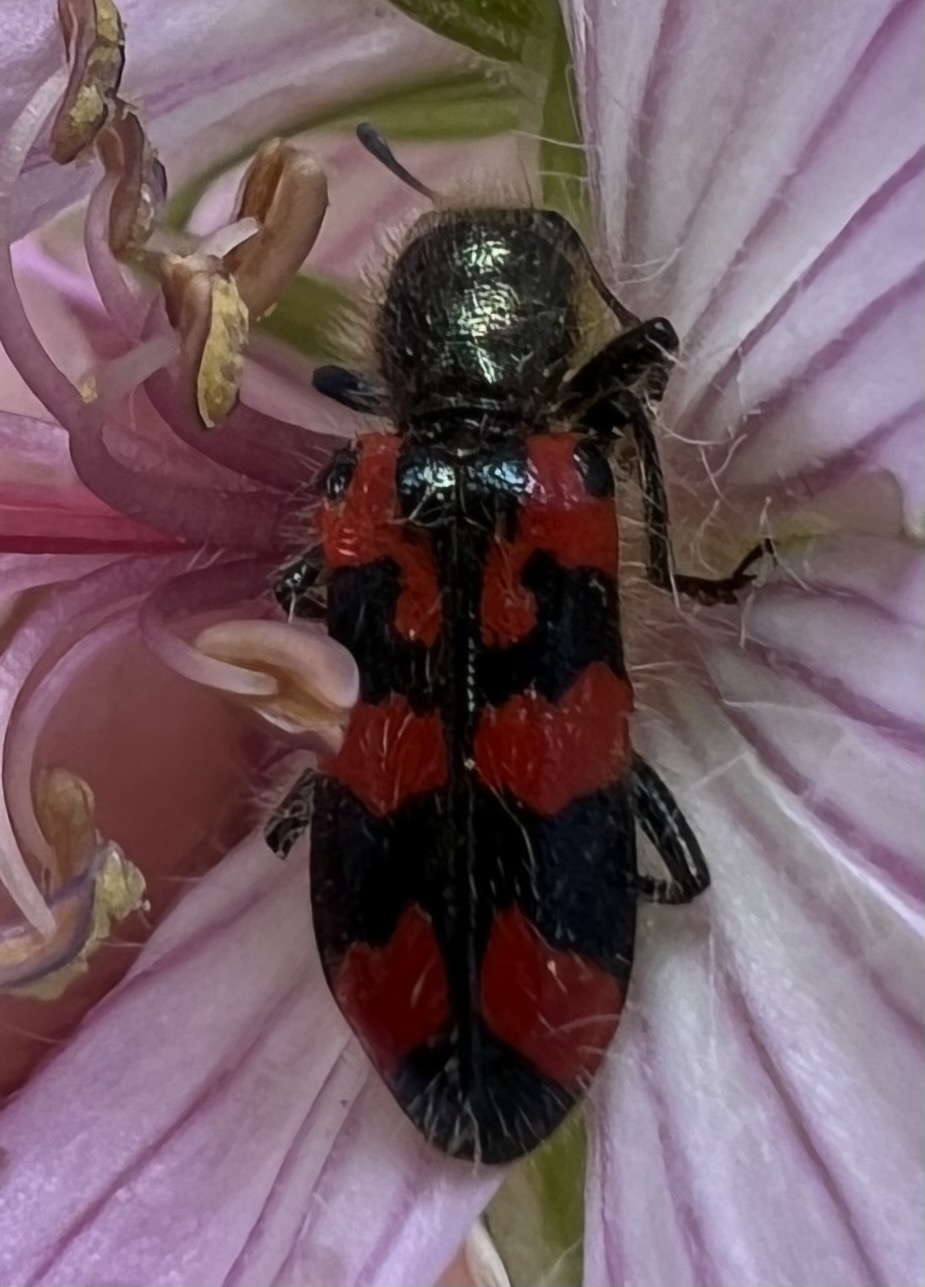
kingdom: Animalia
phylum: Arthropoda
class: Insecta
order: Coleoptera
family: Cleridae
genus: Trichodes
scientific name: Trichodes ornatus
